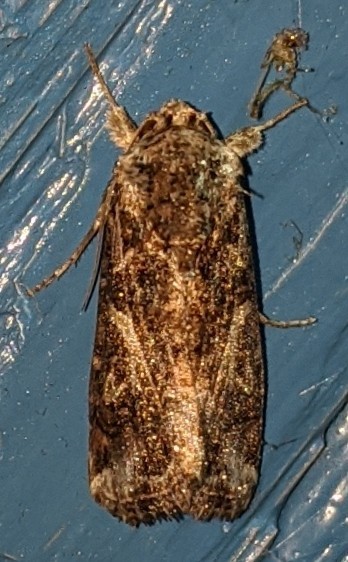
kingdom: Animalia
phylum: Arthropoda
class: Insecta
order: Lepidoptera
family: Noctuidae
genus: Spodoptera
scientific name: Spodoptera ornithogalli
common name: Yellow-striped armyworm
